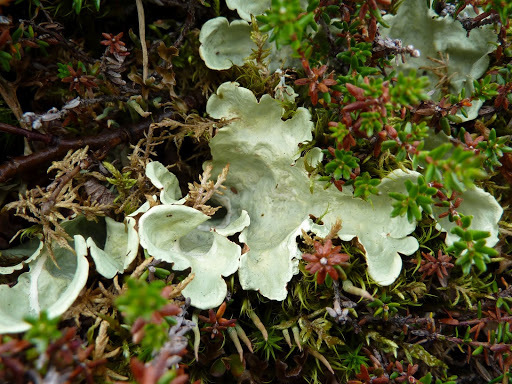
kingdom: Fungi
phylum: Ascomycota
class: Lecanoromycetes
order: Peltigerales
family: Nephromataceae
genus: Nephroma
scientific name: Nephroma arcticum
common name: Arctic kidney-lichen
